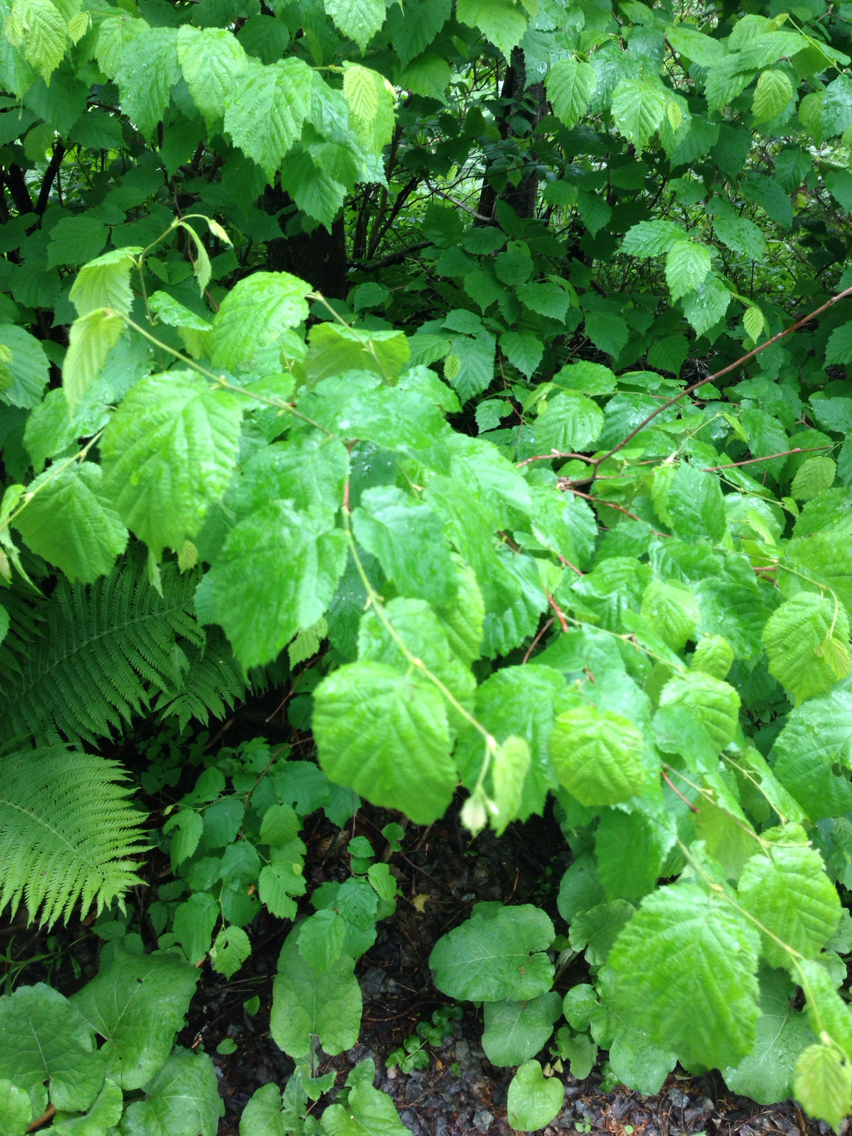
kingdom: Plantae
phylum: Tracheophyta
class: Magnoliopsida
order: Fagales
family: Betulaceae
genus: Corylus
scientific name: Corylus cornuta
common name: Beaked hazel
